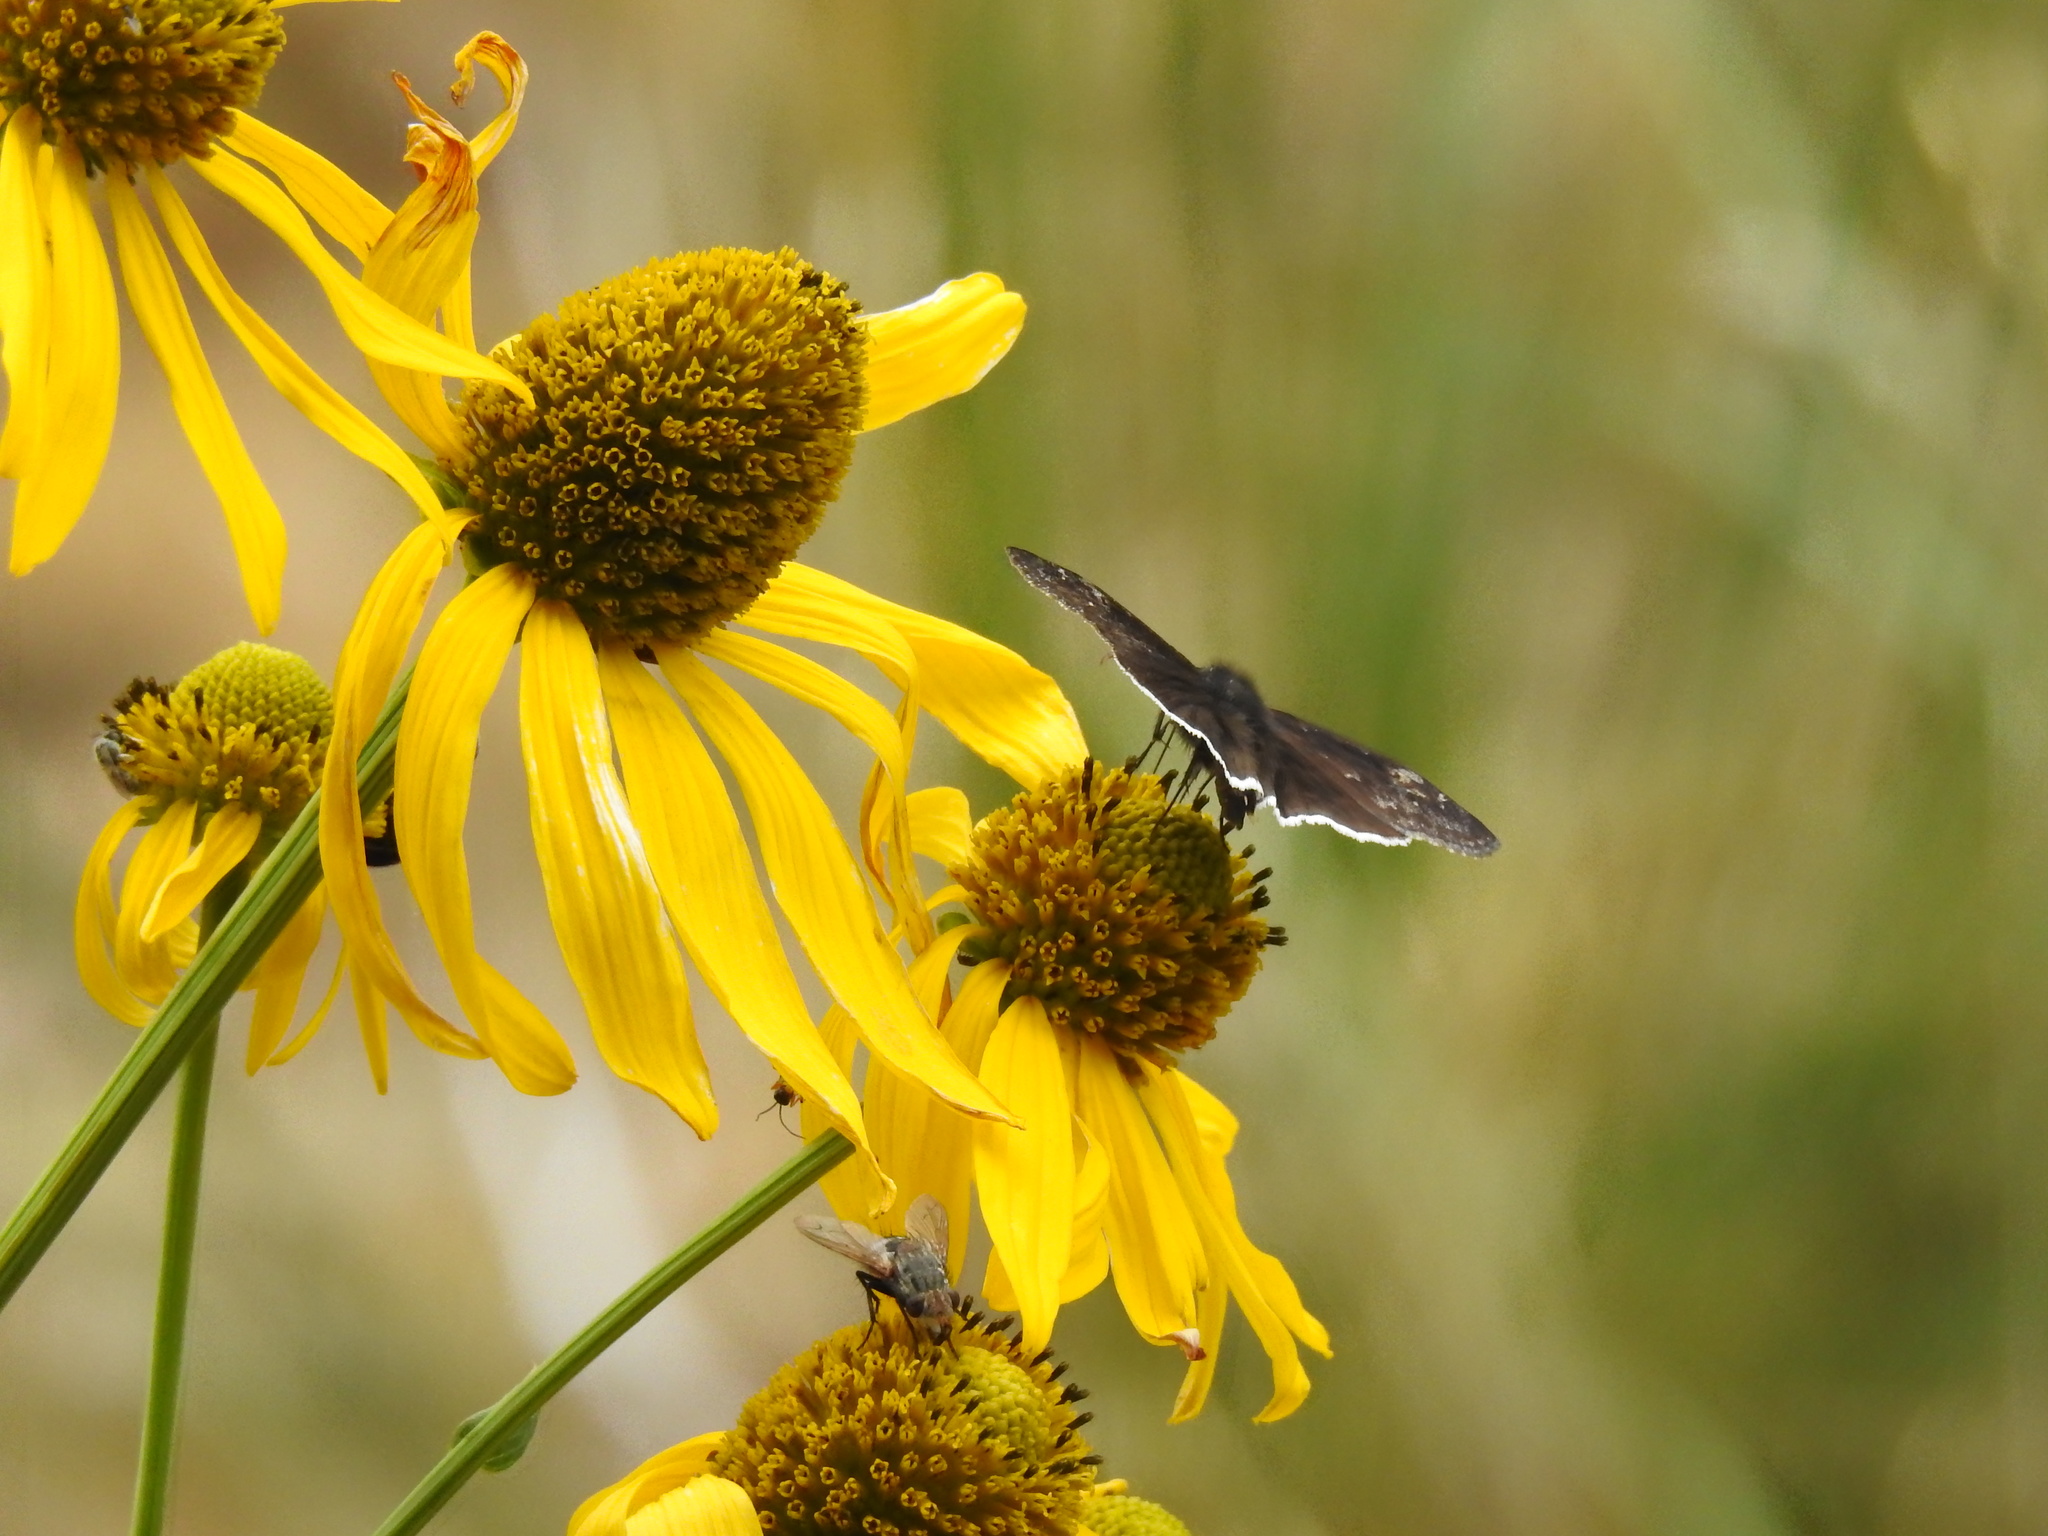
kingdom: Animalia
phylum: Arthropoda
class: Insecta
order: Lepidoptera
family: Hesperiidae
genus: Erynnis
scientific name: Erynnis funeralis
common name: Funereal duskywing
